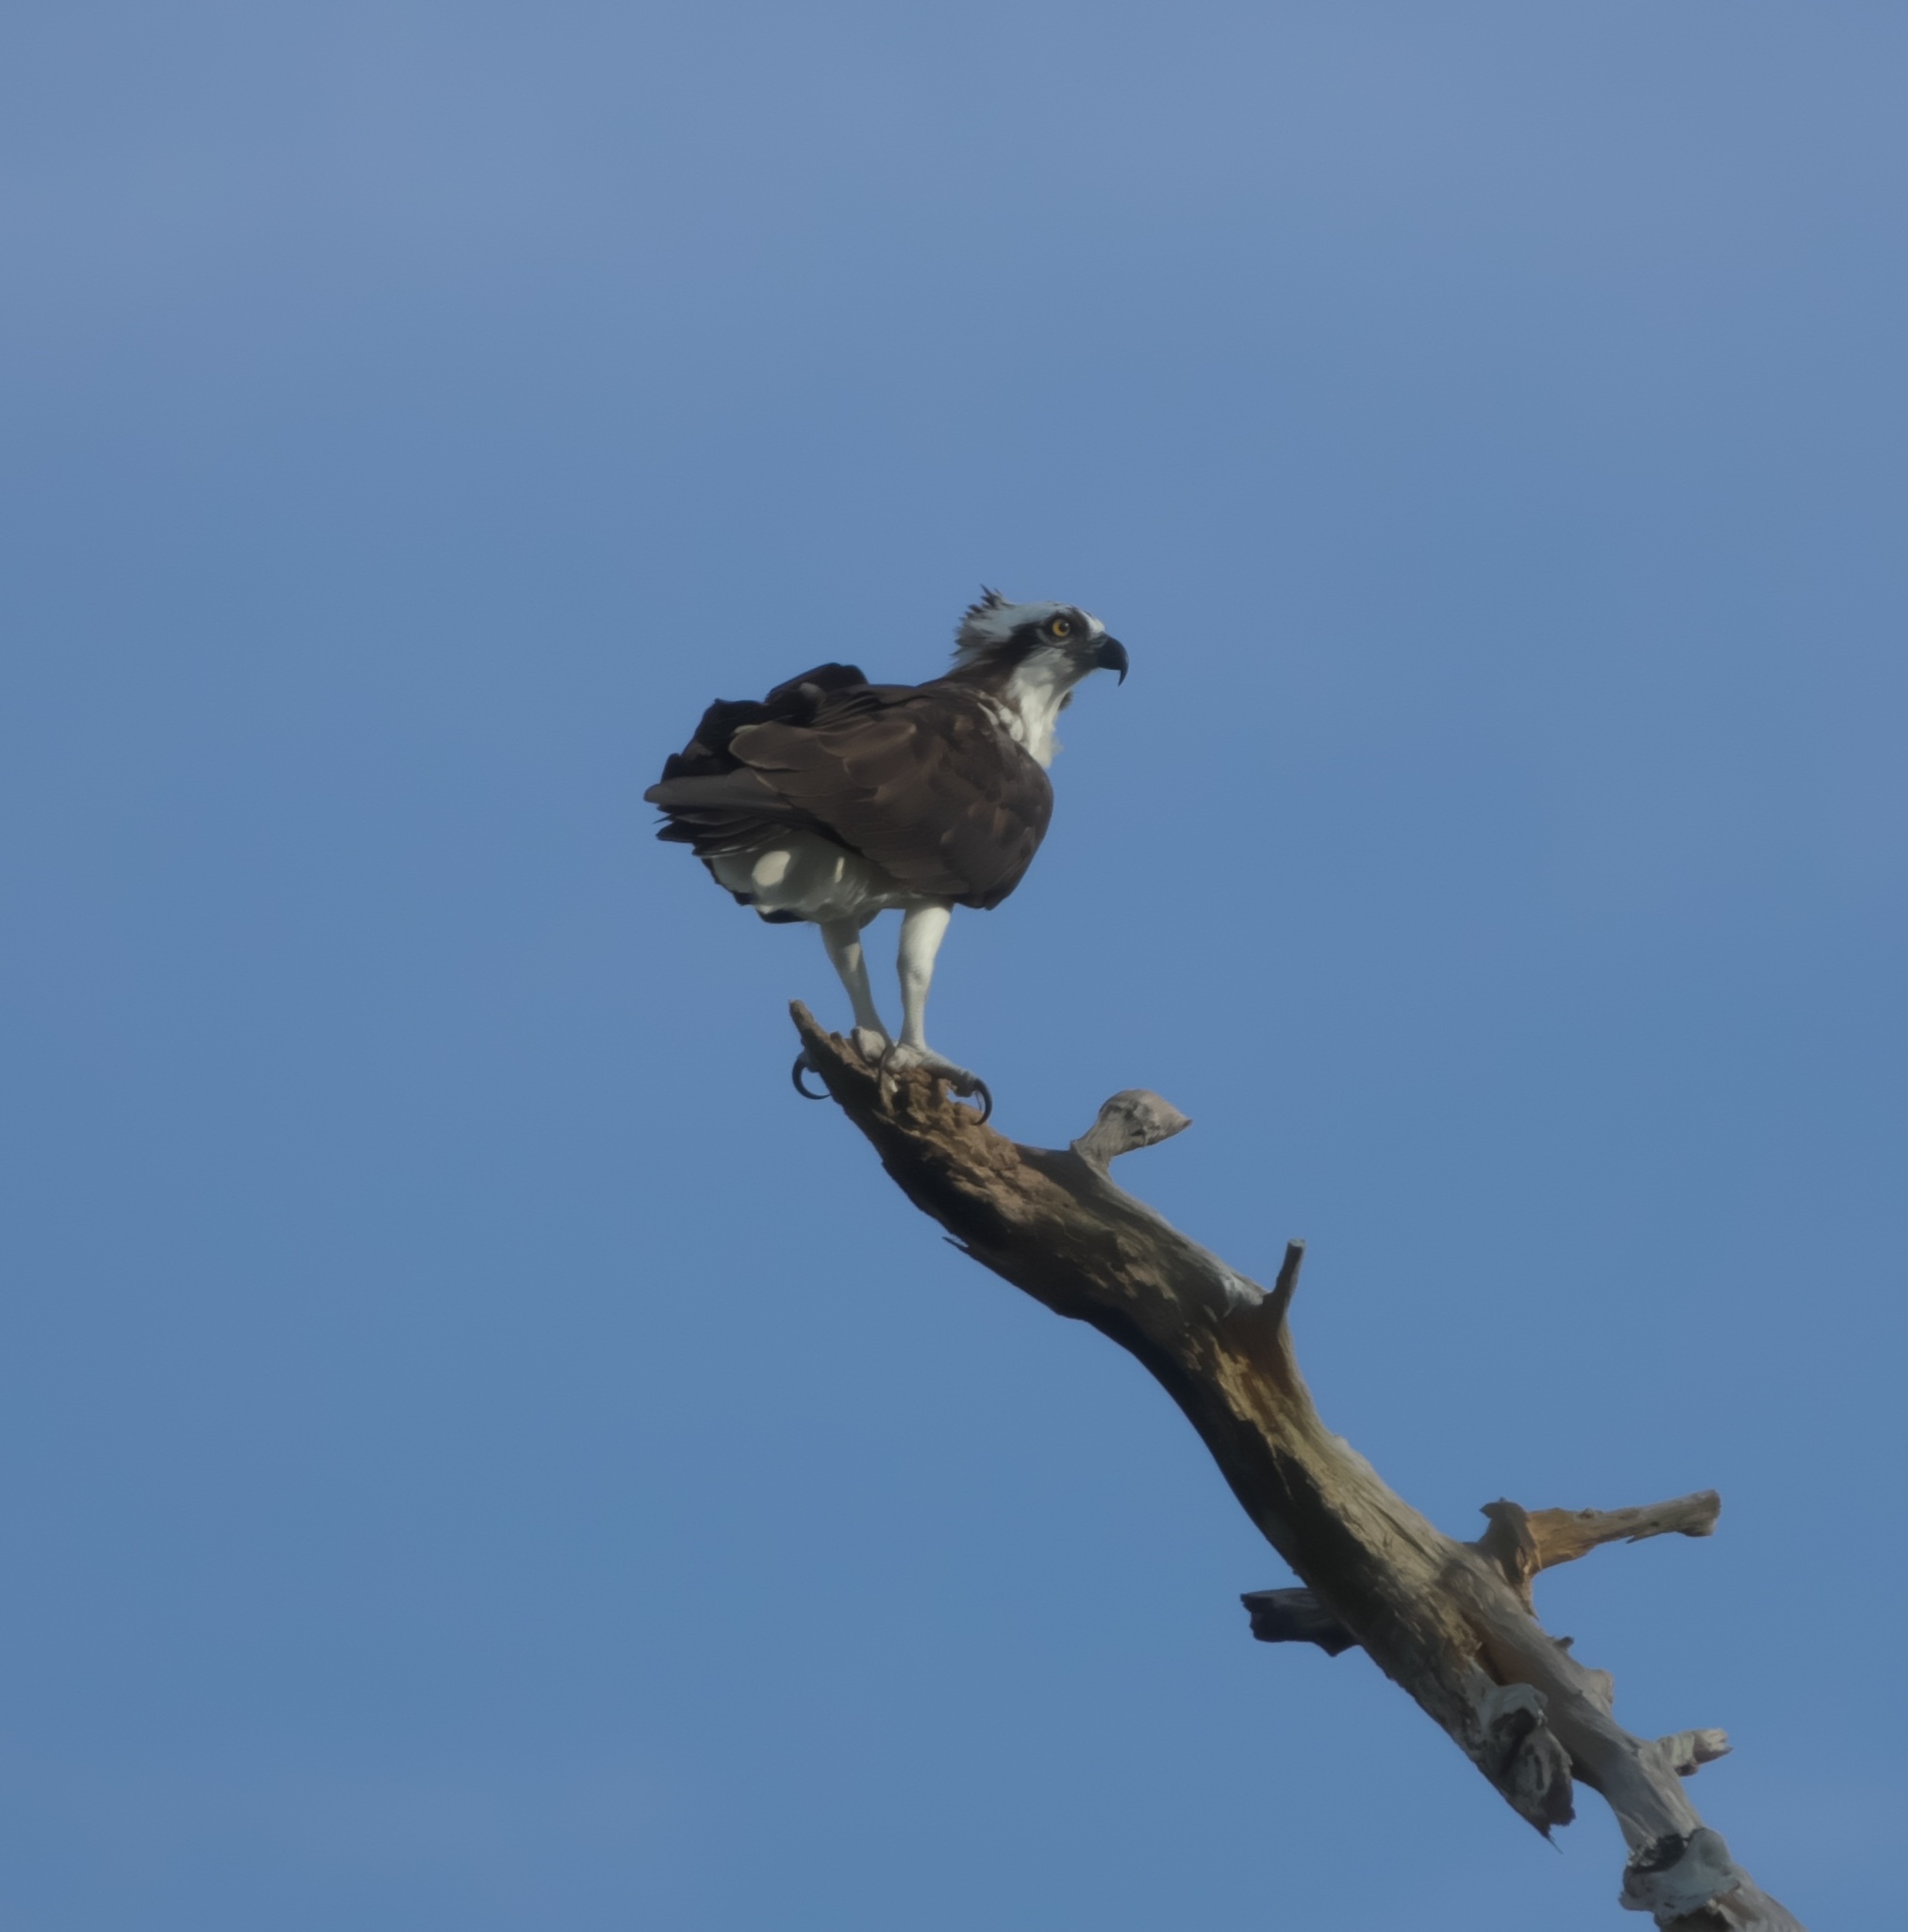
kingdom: Animalia
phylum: Chordata
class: Aves
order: Accipitriformes
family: Pandionidae
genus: Pandion
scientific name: Pandion haliaetus
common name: Osprey
